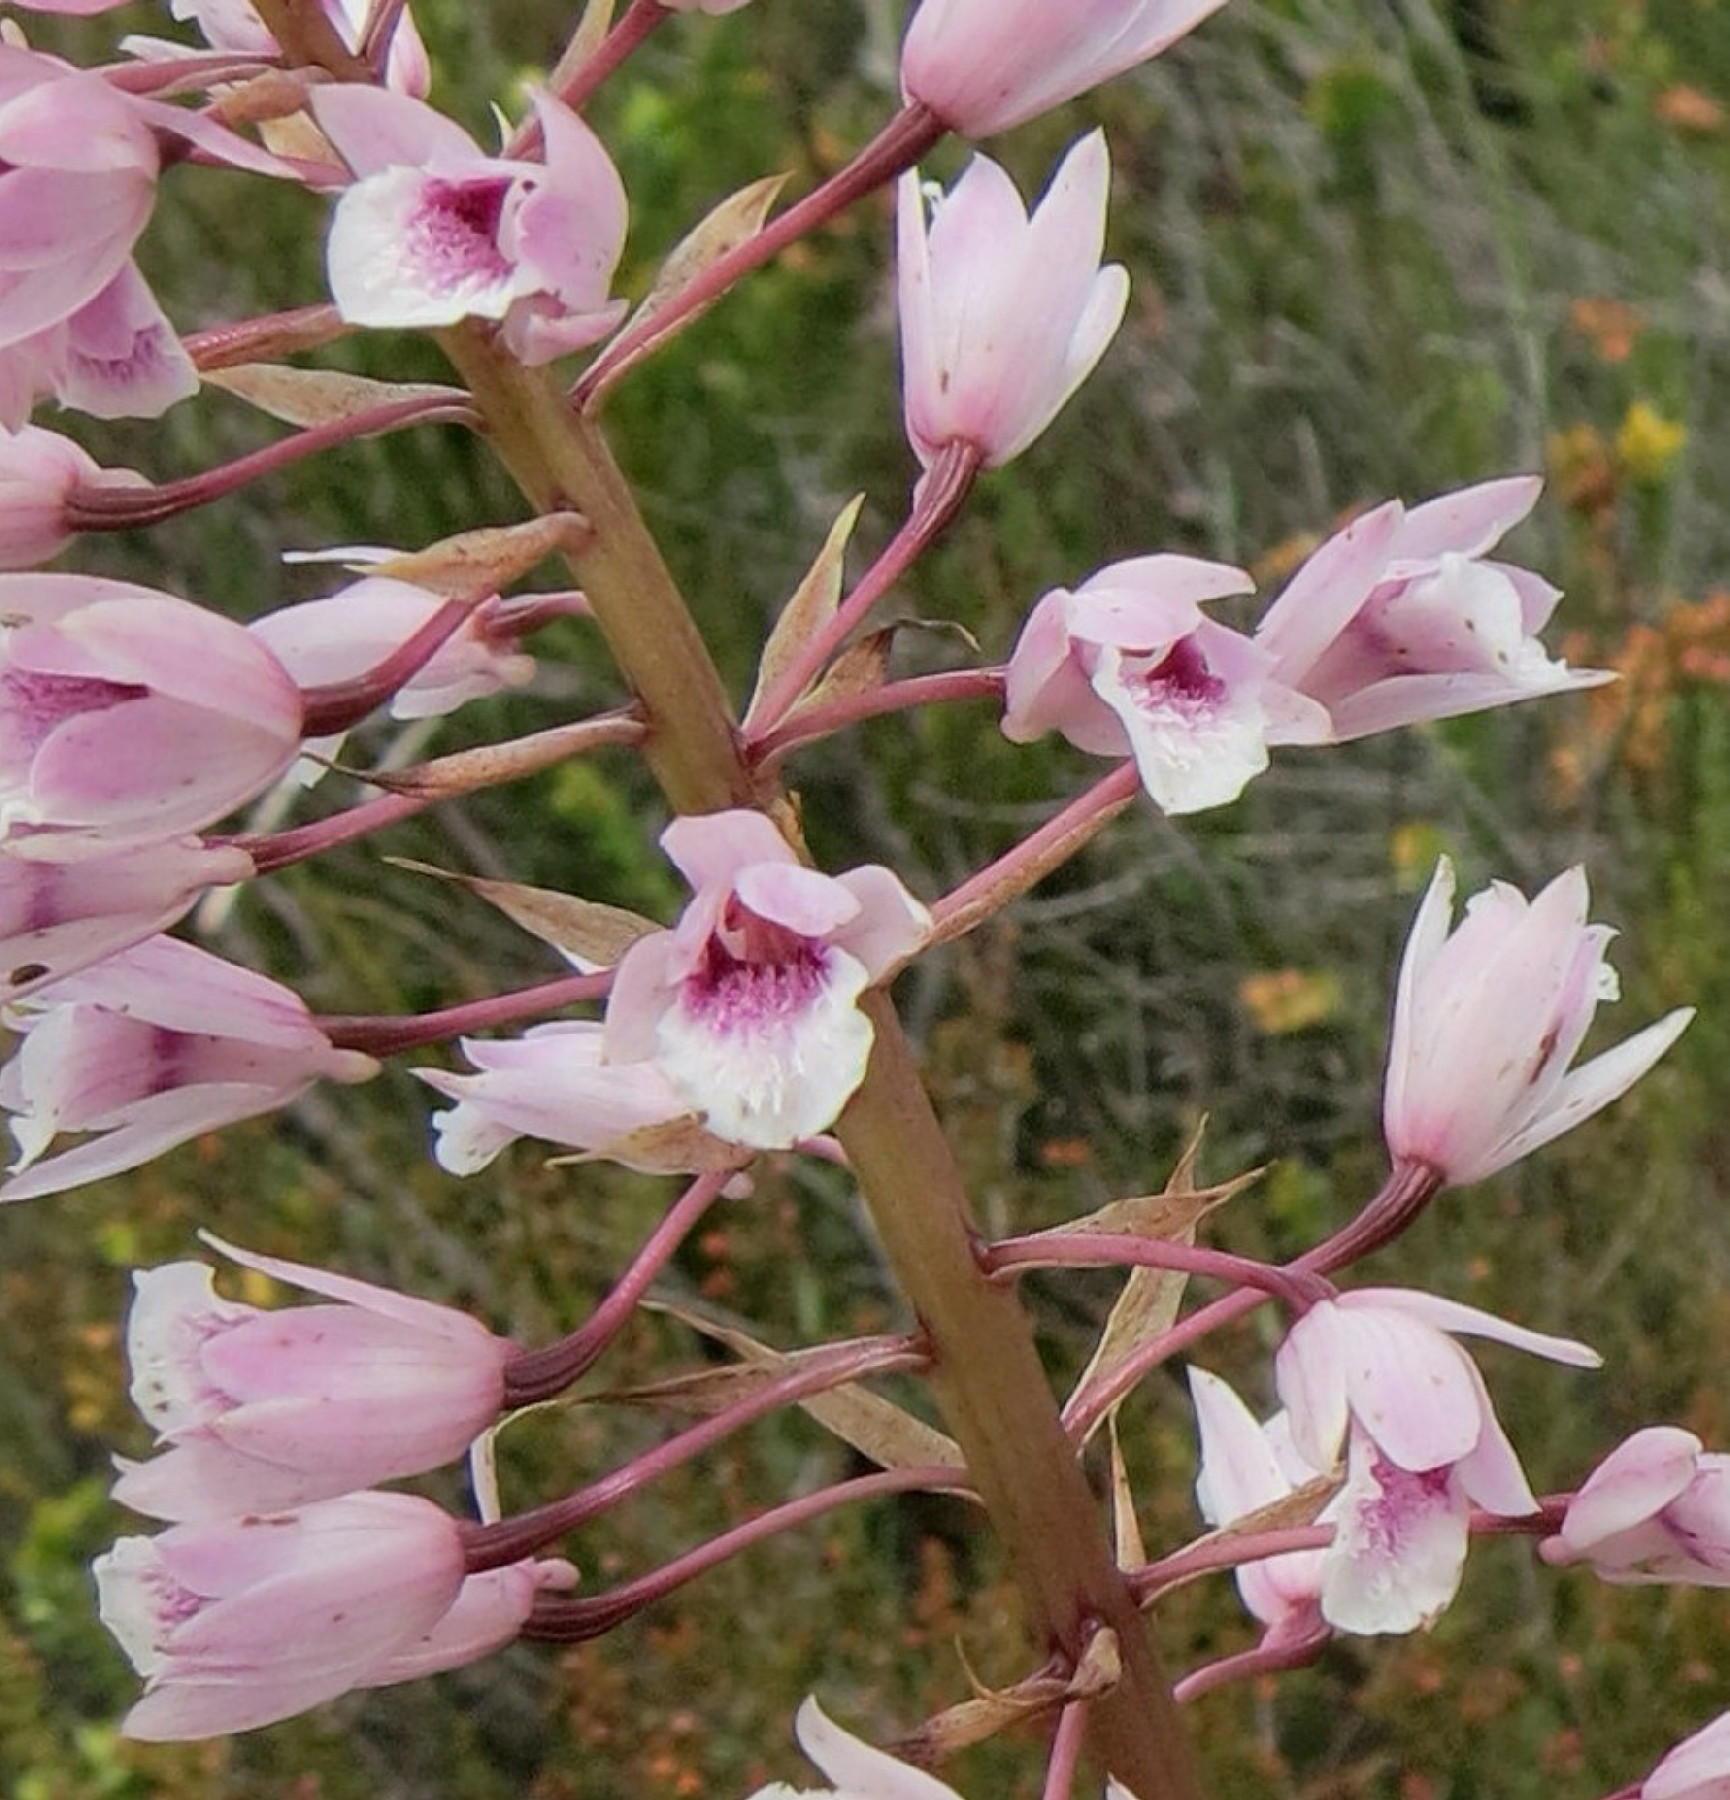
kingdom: Plantae
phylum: Tracheophyta
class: Liliopsida
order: Asparagales
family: Orchidaceae
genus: Eulophia
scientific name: Eulophia barbata
